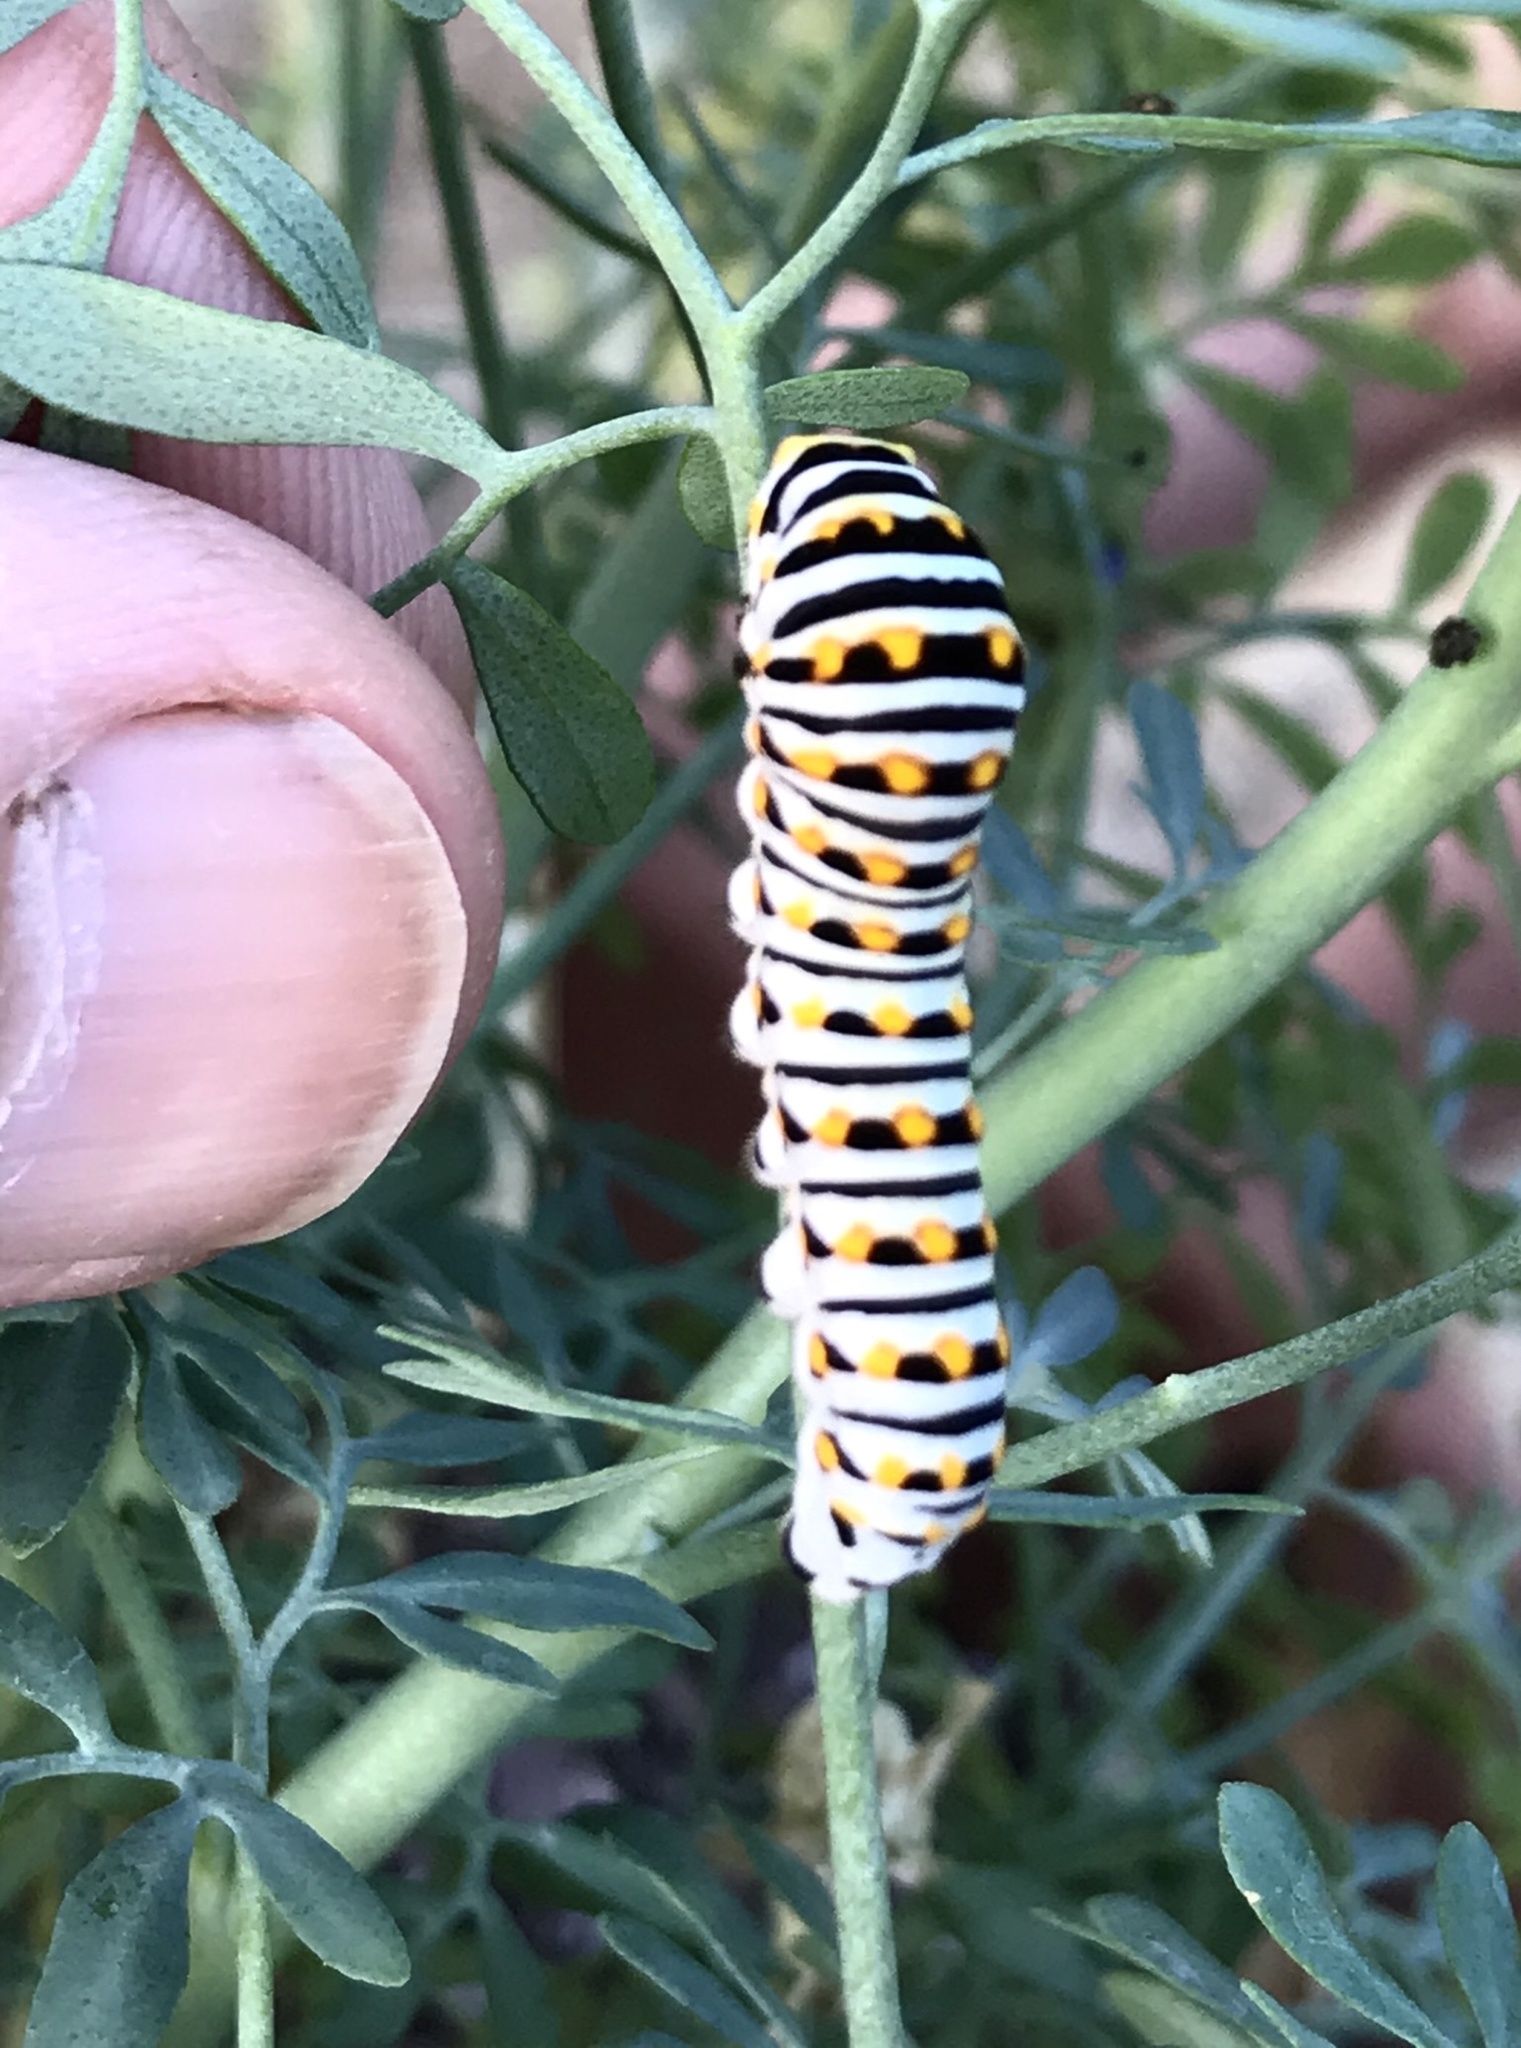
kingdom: Animalia
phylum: Arthropoda
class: Insecta
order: Lepidoptera
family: Papilionidae
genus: Papilio
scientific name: Papilio polyxenes
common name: Black swallowtail
